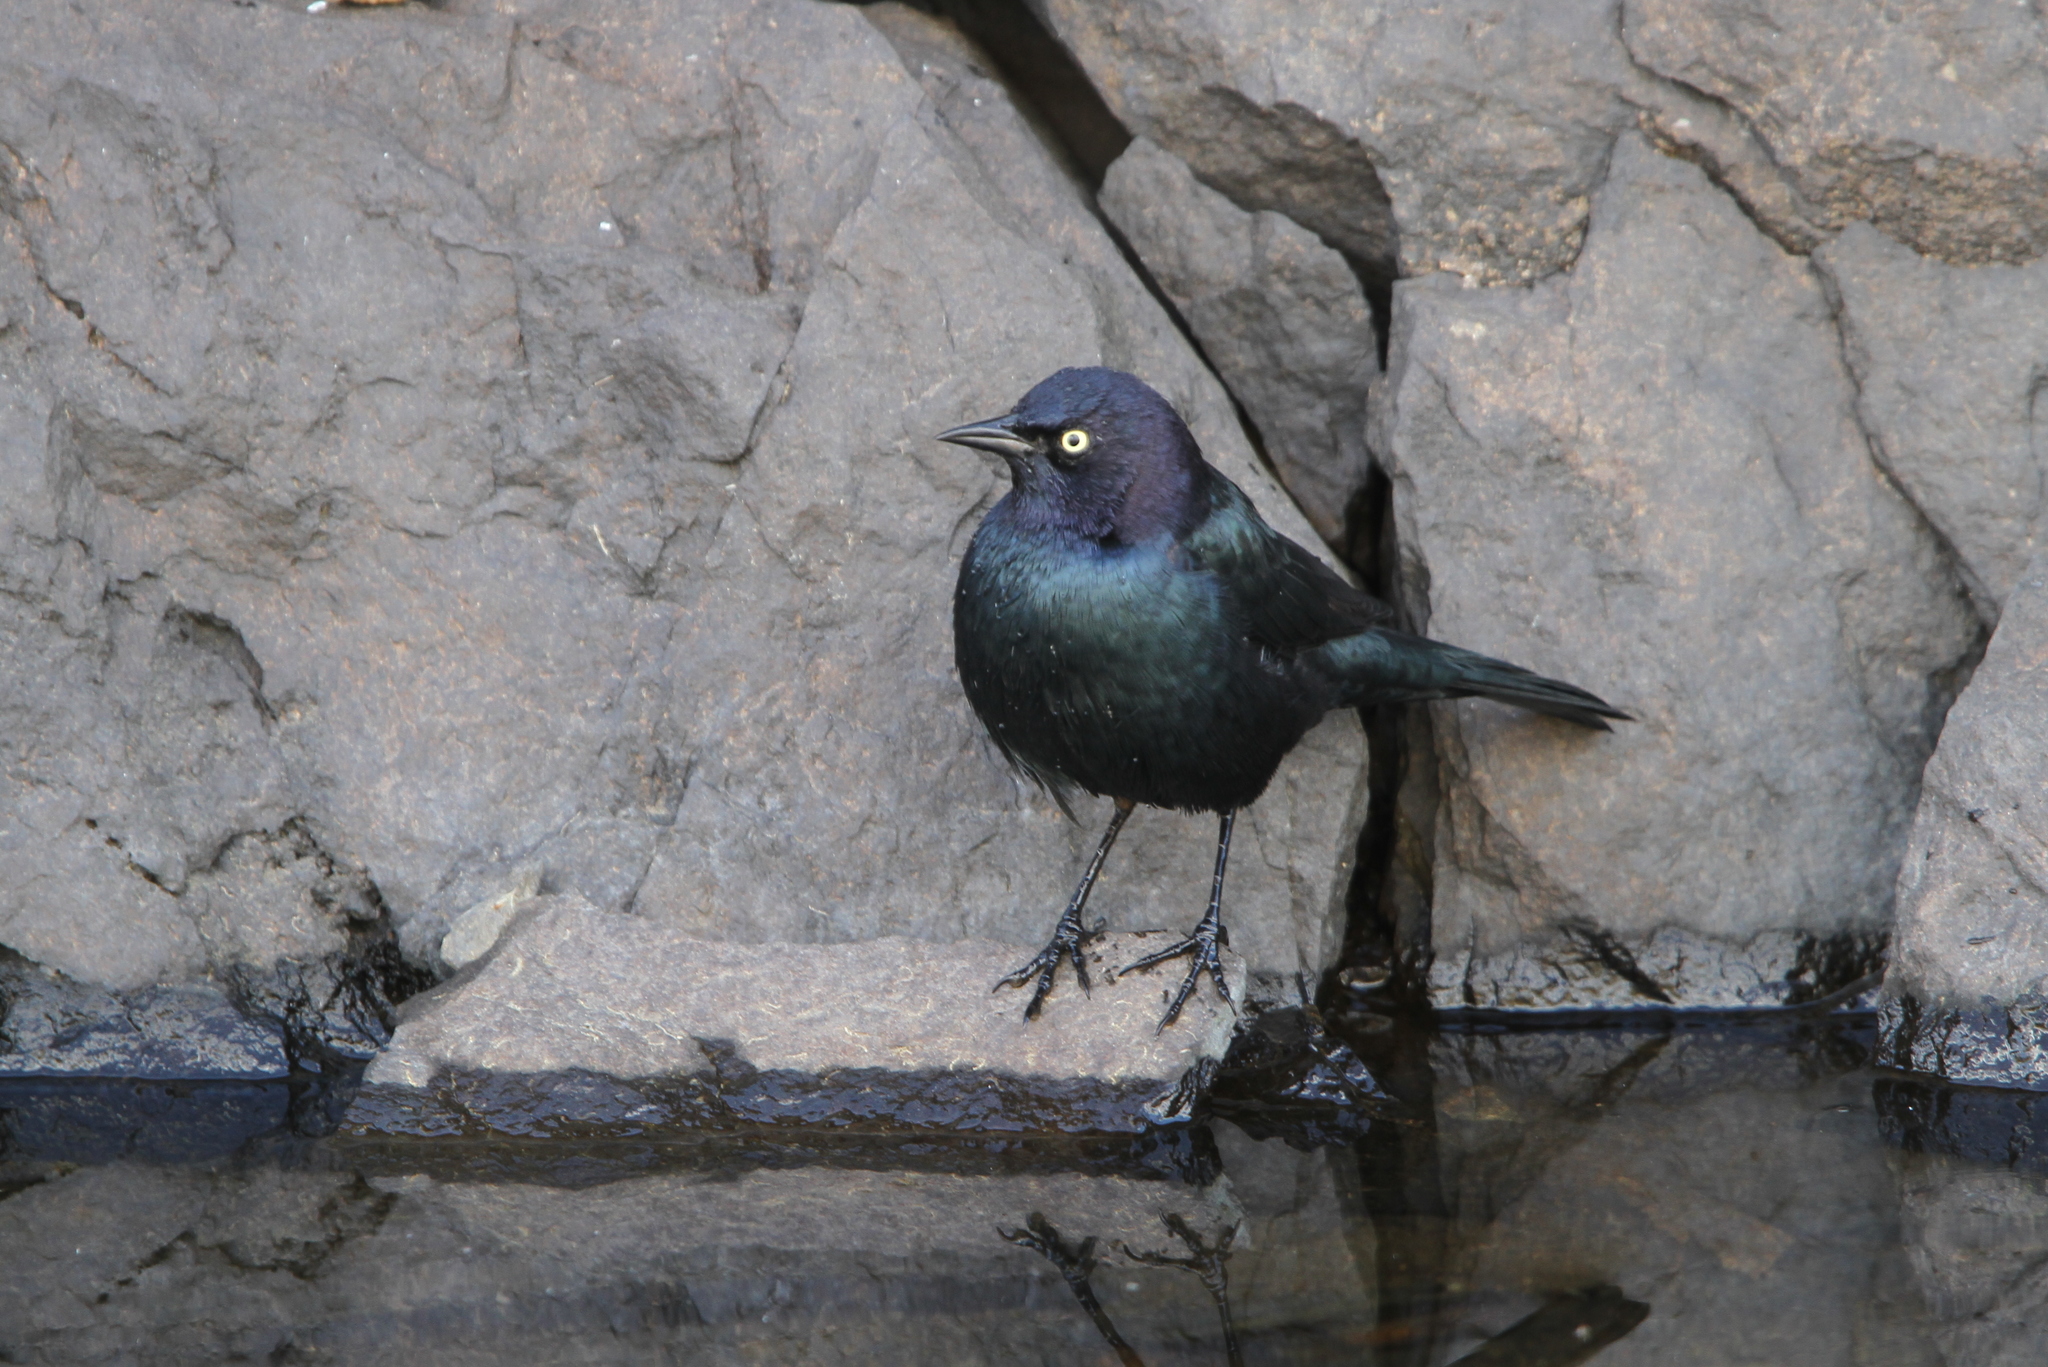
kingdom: Animalia
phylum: Chordata
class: Aves
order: Passeriformes
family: Icteridae
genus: Euphagus
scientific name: Euphagus cyanocephalus
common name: Brewer's blackbird
